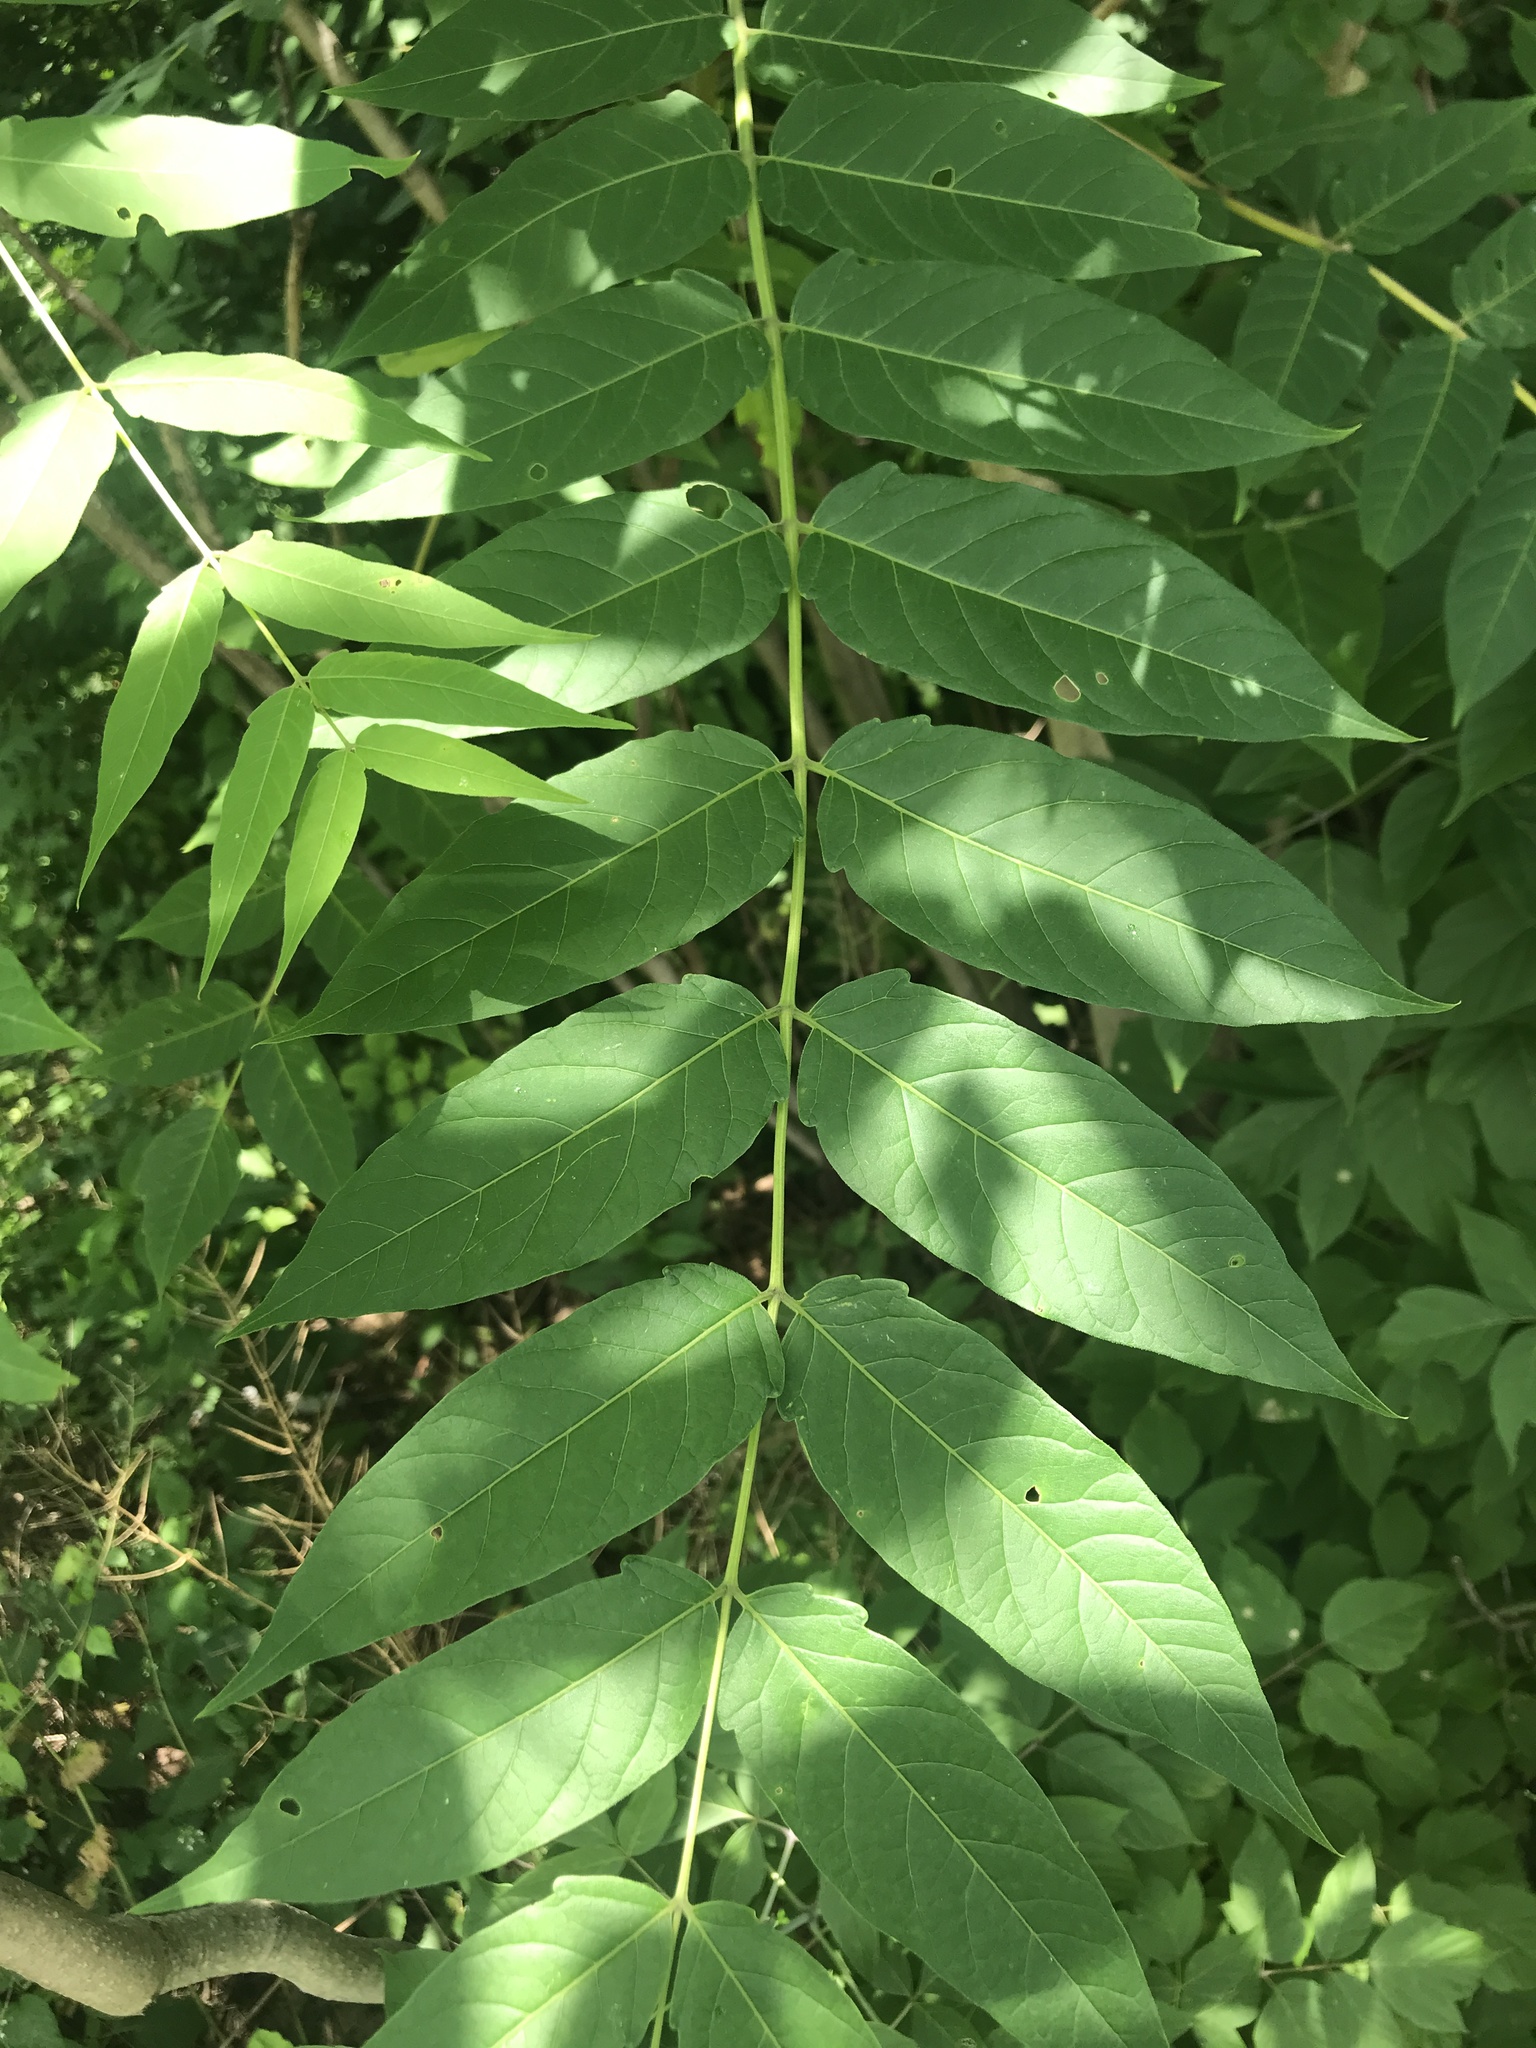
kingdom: Plantae
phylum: Tracheophyta
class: Magnoliopsida
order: Sapindales
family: Simaroubaceae
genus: Ailanthus
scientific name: Ailanthus altissima
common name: Tree-of-heaven
